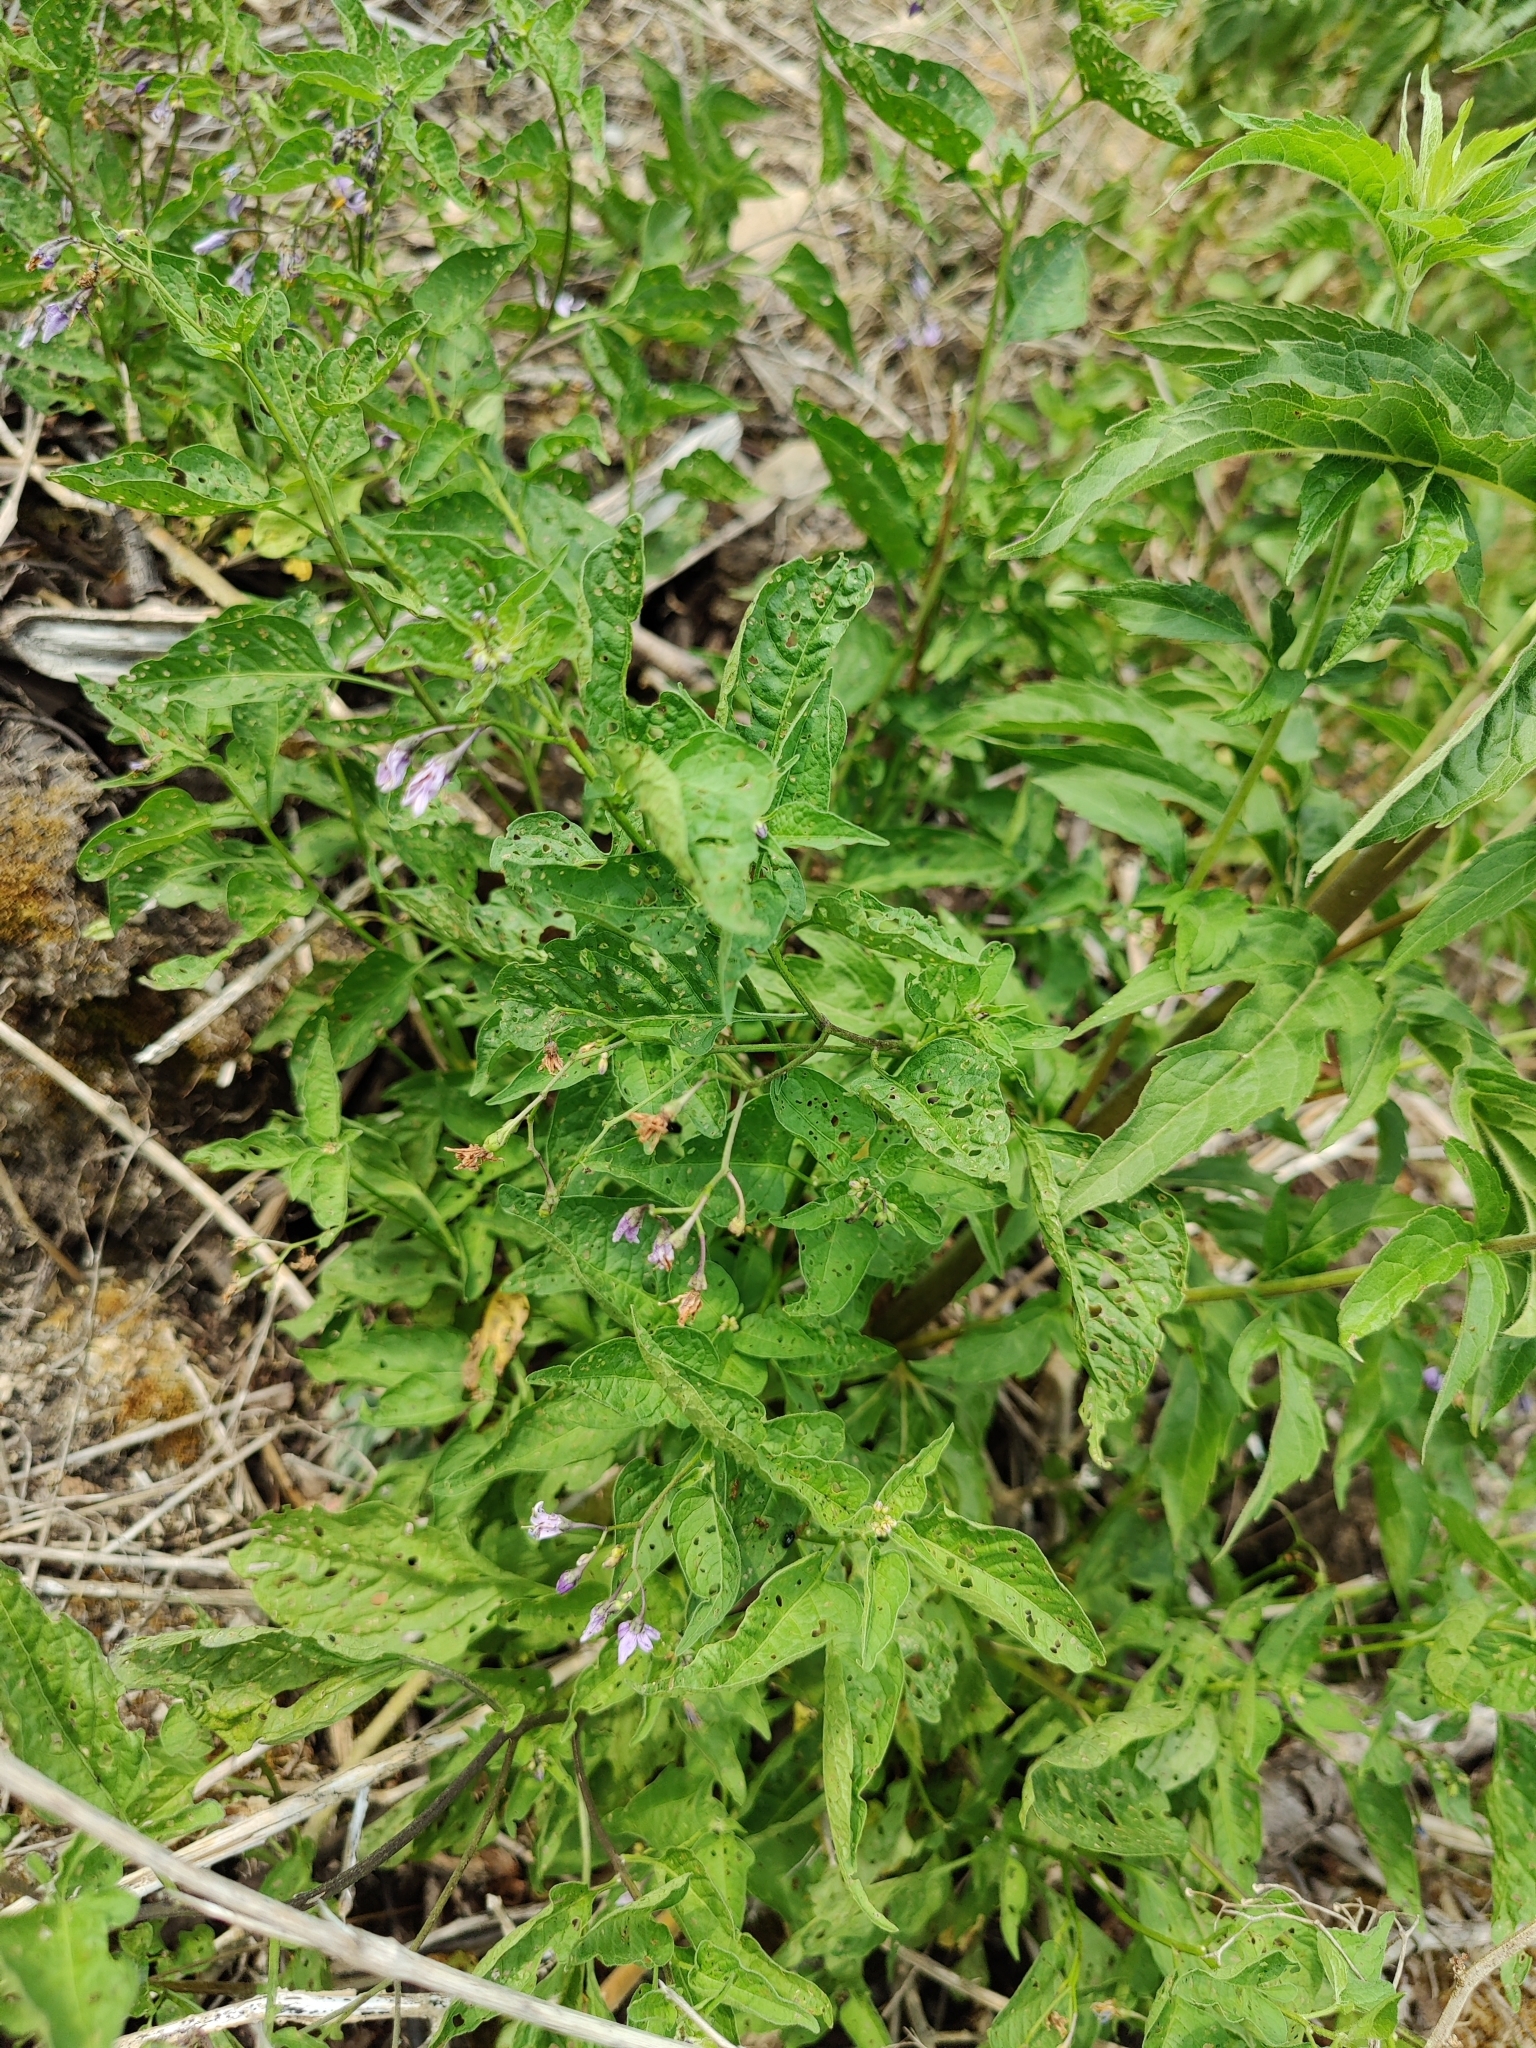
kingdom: Plantae
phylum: Tracheophyta
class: Magnoliopsida
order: Solanales
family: Solanaceae
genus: Solanum
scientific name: Solanum dulcamara
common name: Climbing nightshade
